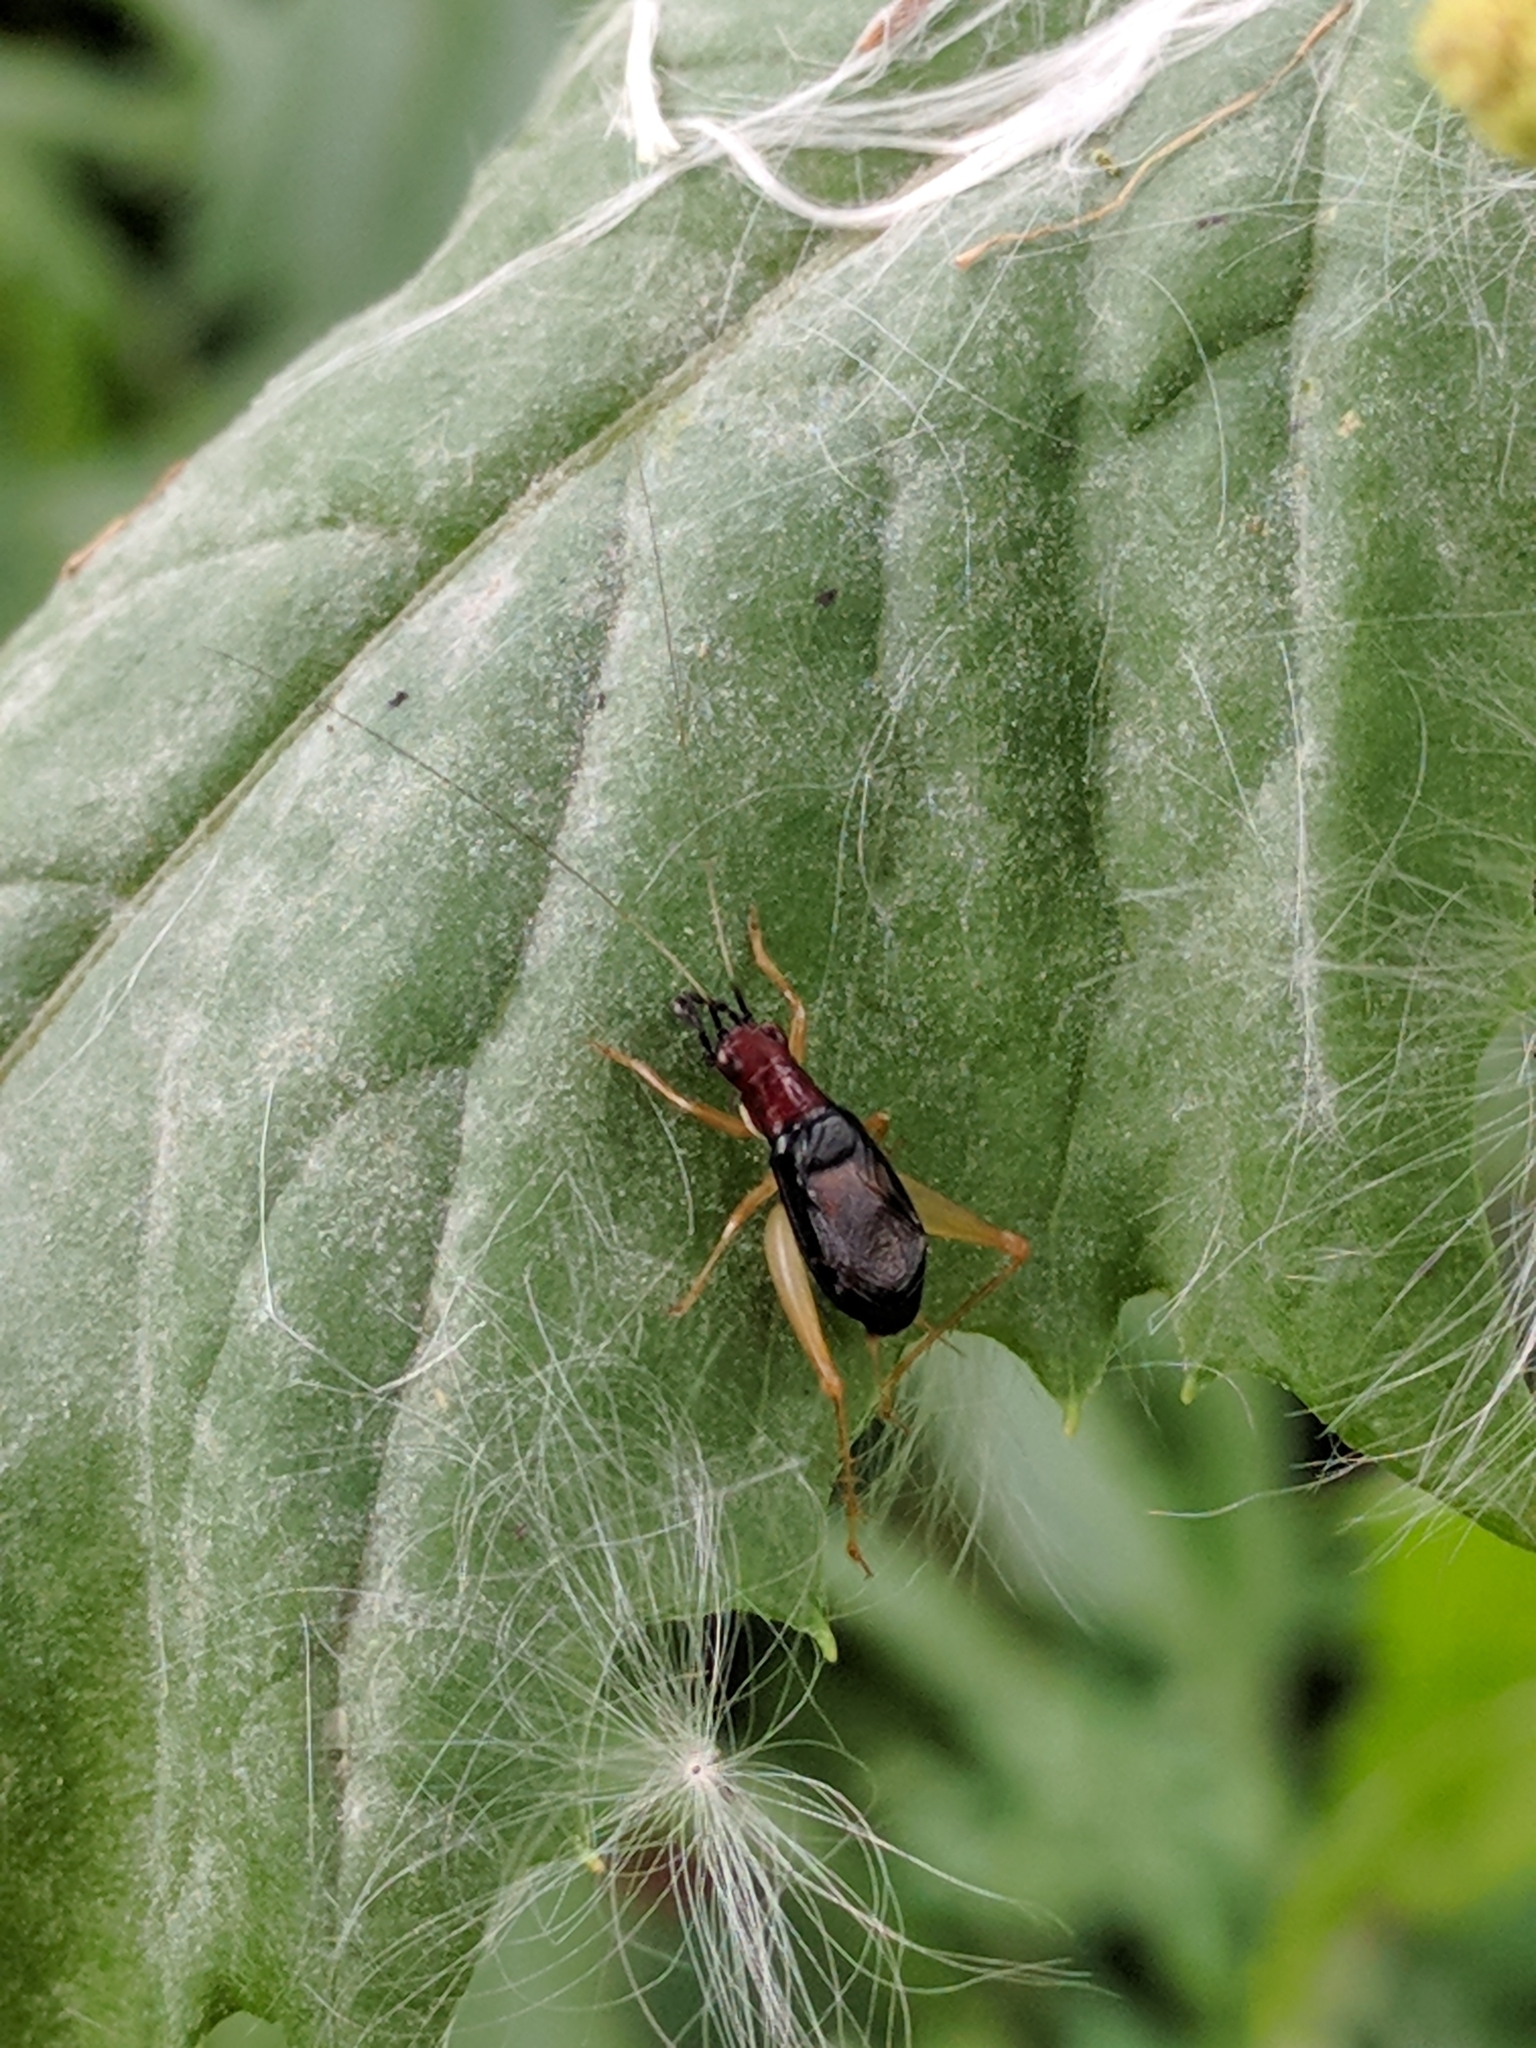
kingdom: Animalia
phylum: Arthropoda
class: Insecta
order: Orthoptera
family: Trigonidiidae
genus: Phyllopalpus
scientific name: Phyllopalpus pulchellus
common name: Handsome trig
